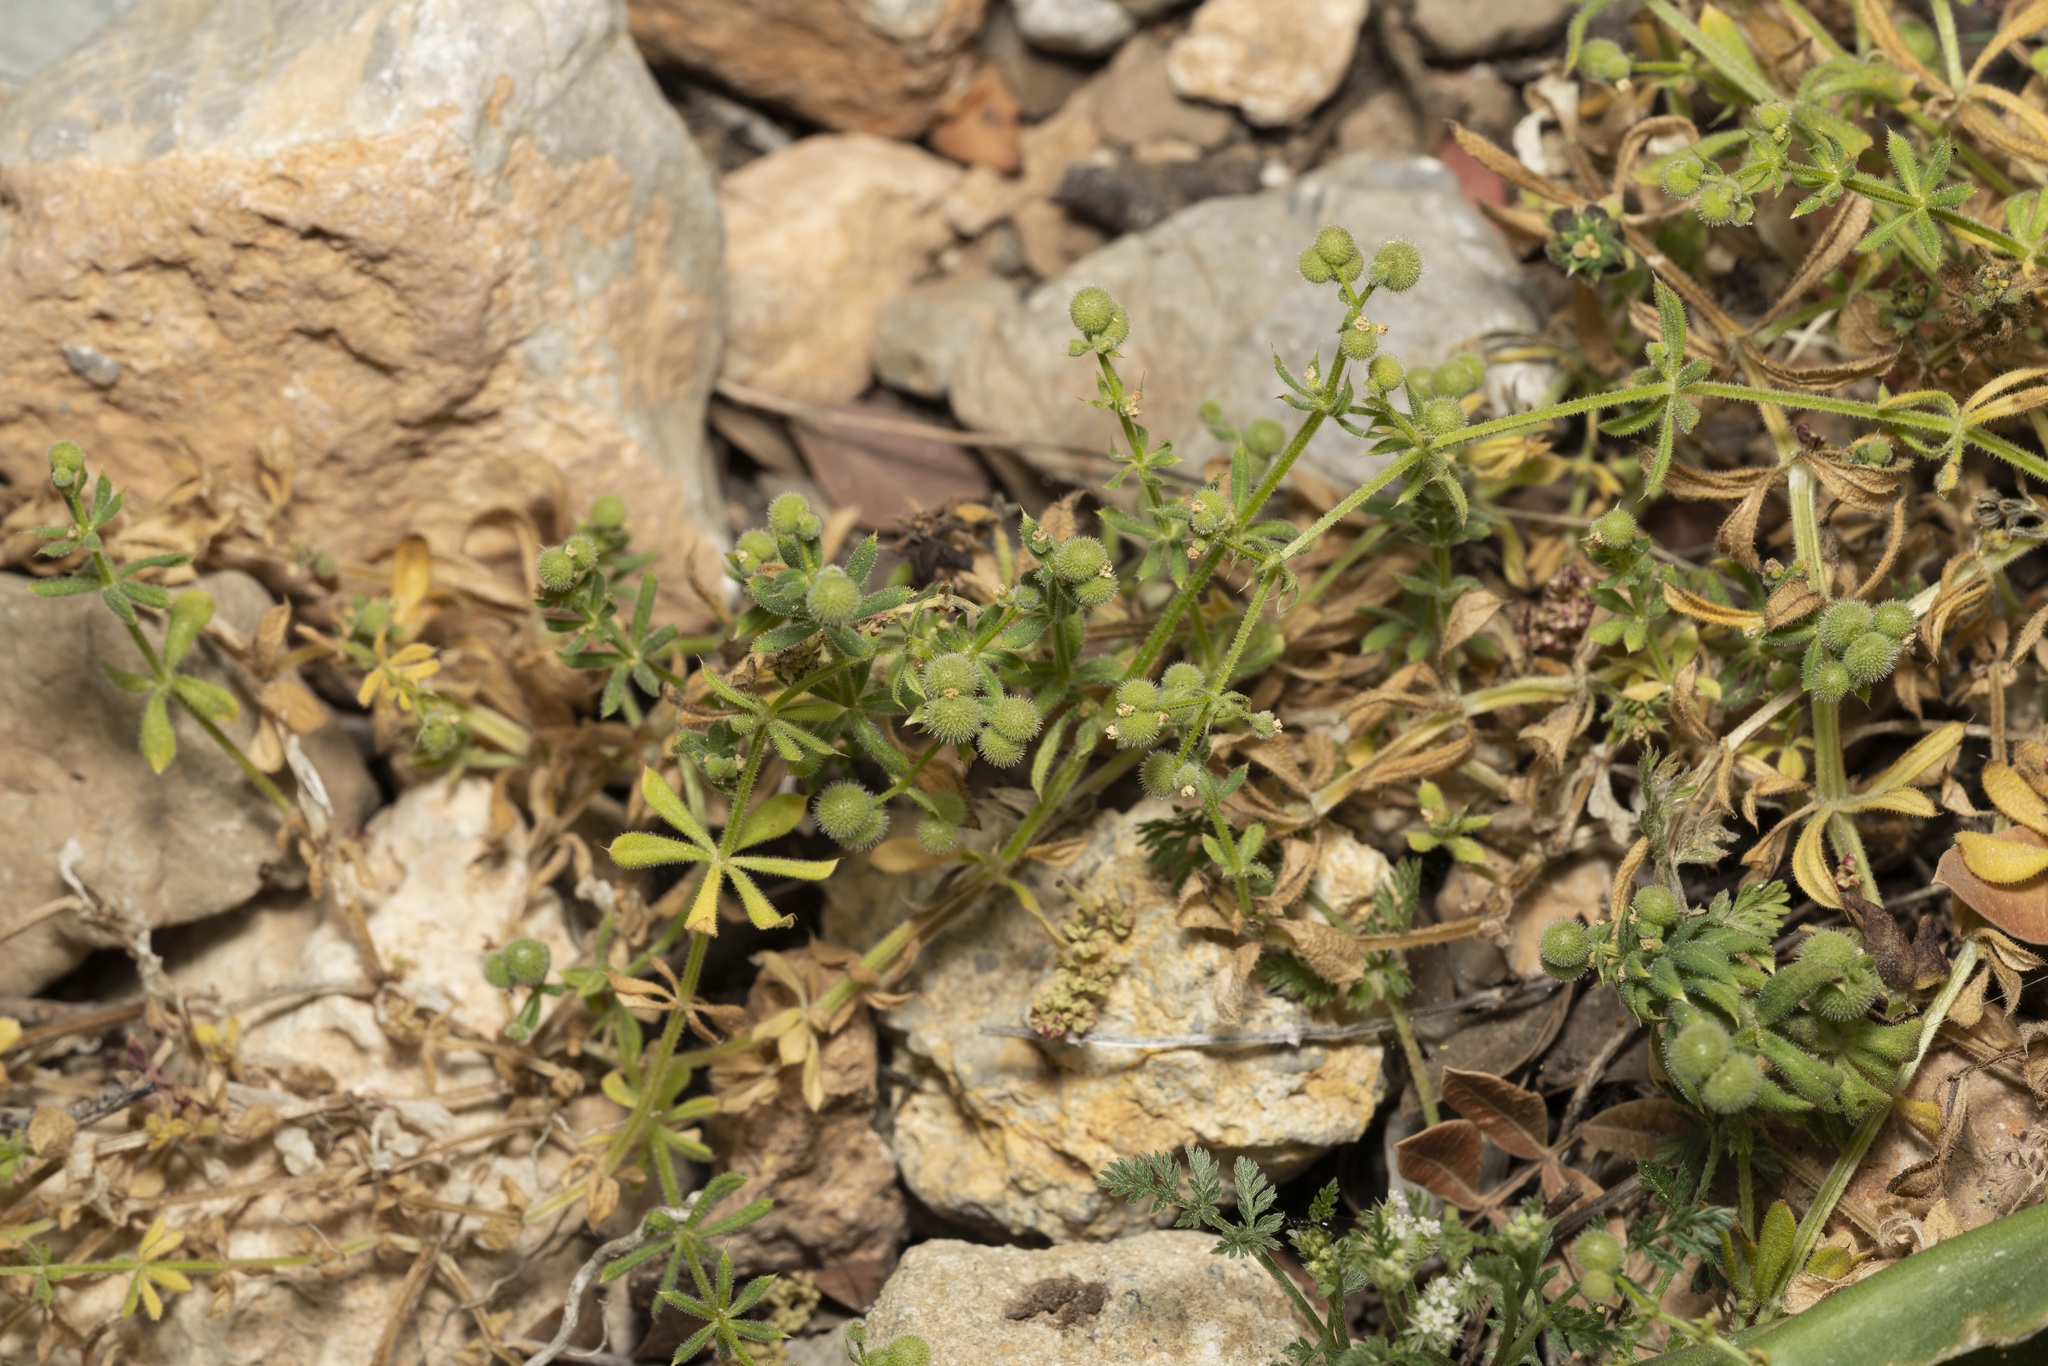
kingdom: Plantae
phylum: Tracheophyta
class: Magnoliopsida
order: Gentianales
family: Rubiaceae
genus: Galium
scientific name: Galium aparine
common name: Cleavers
